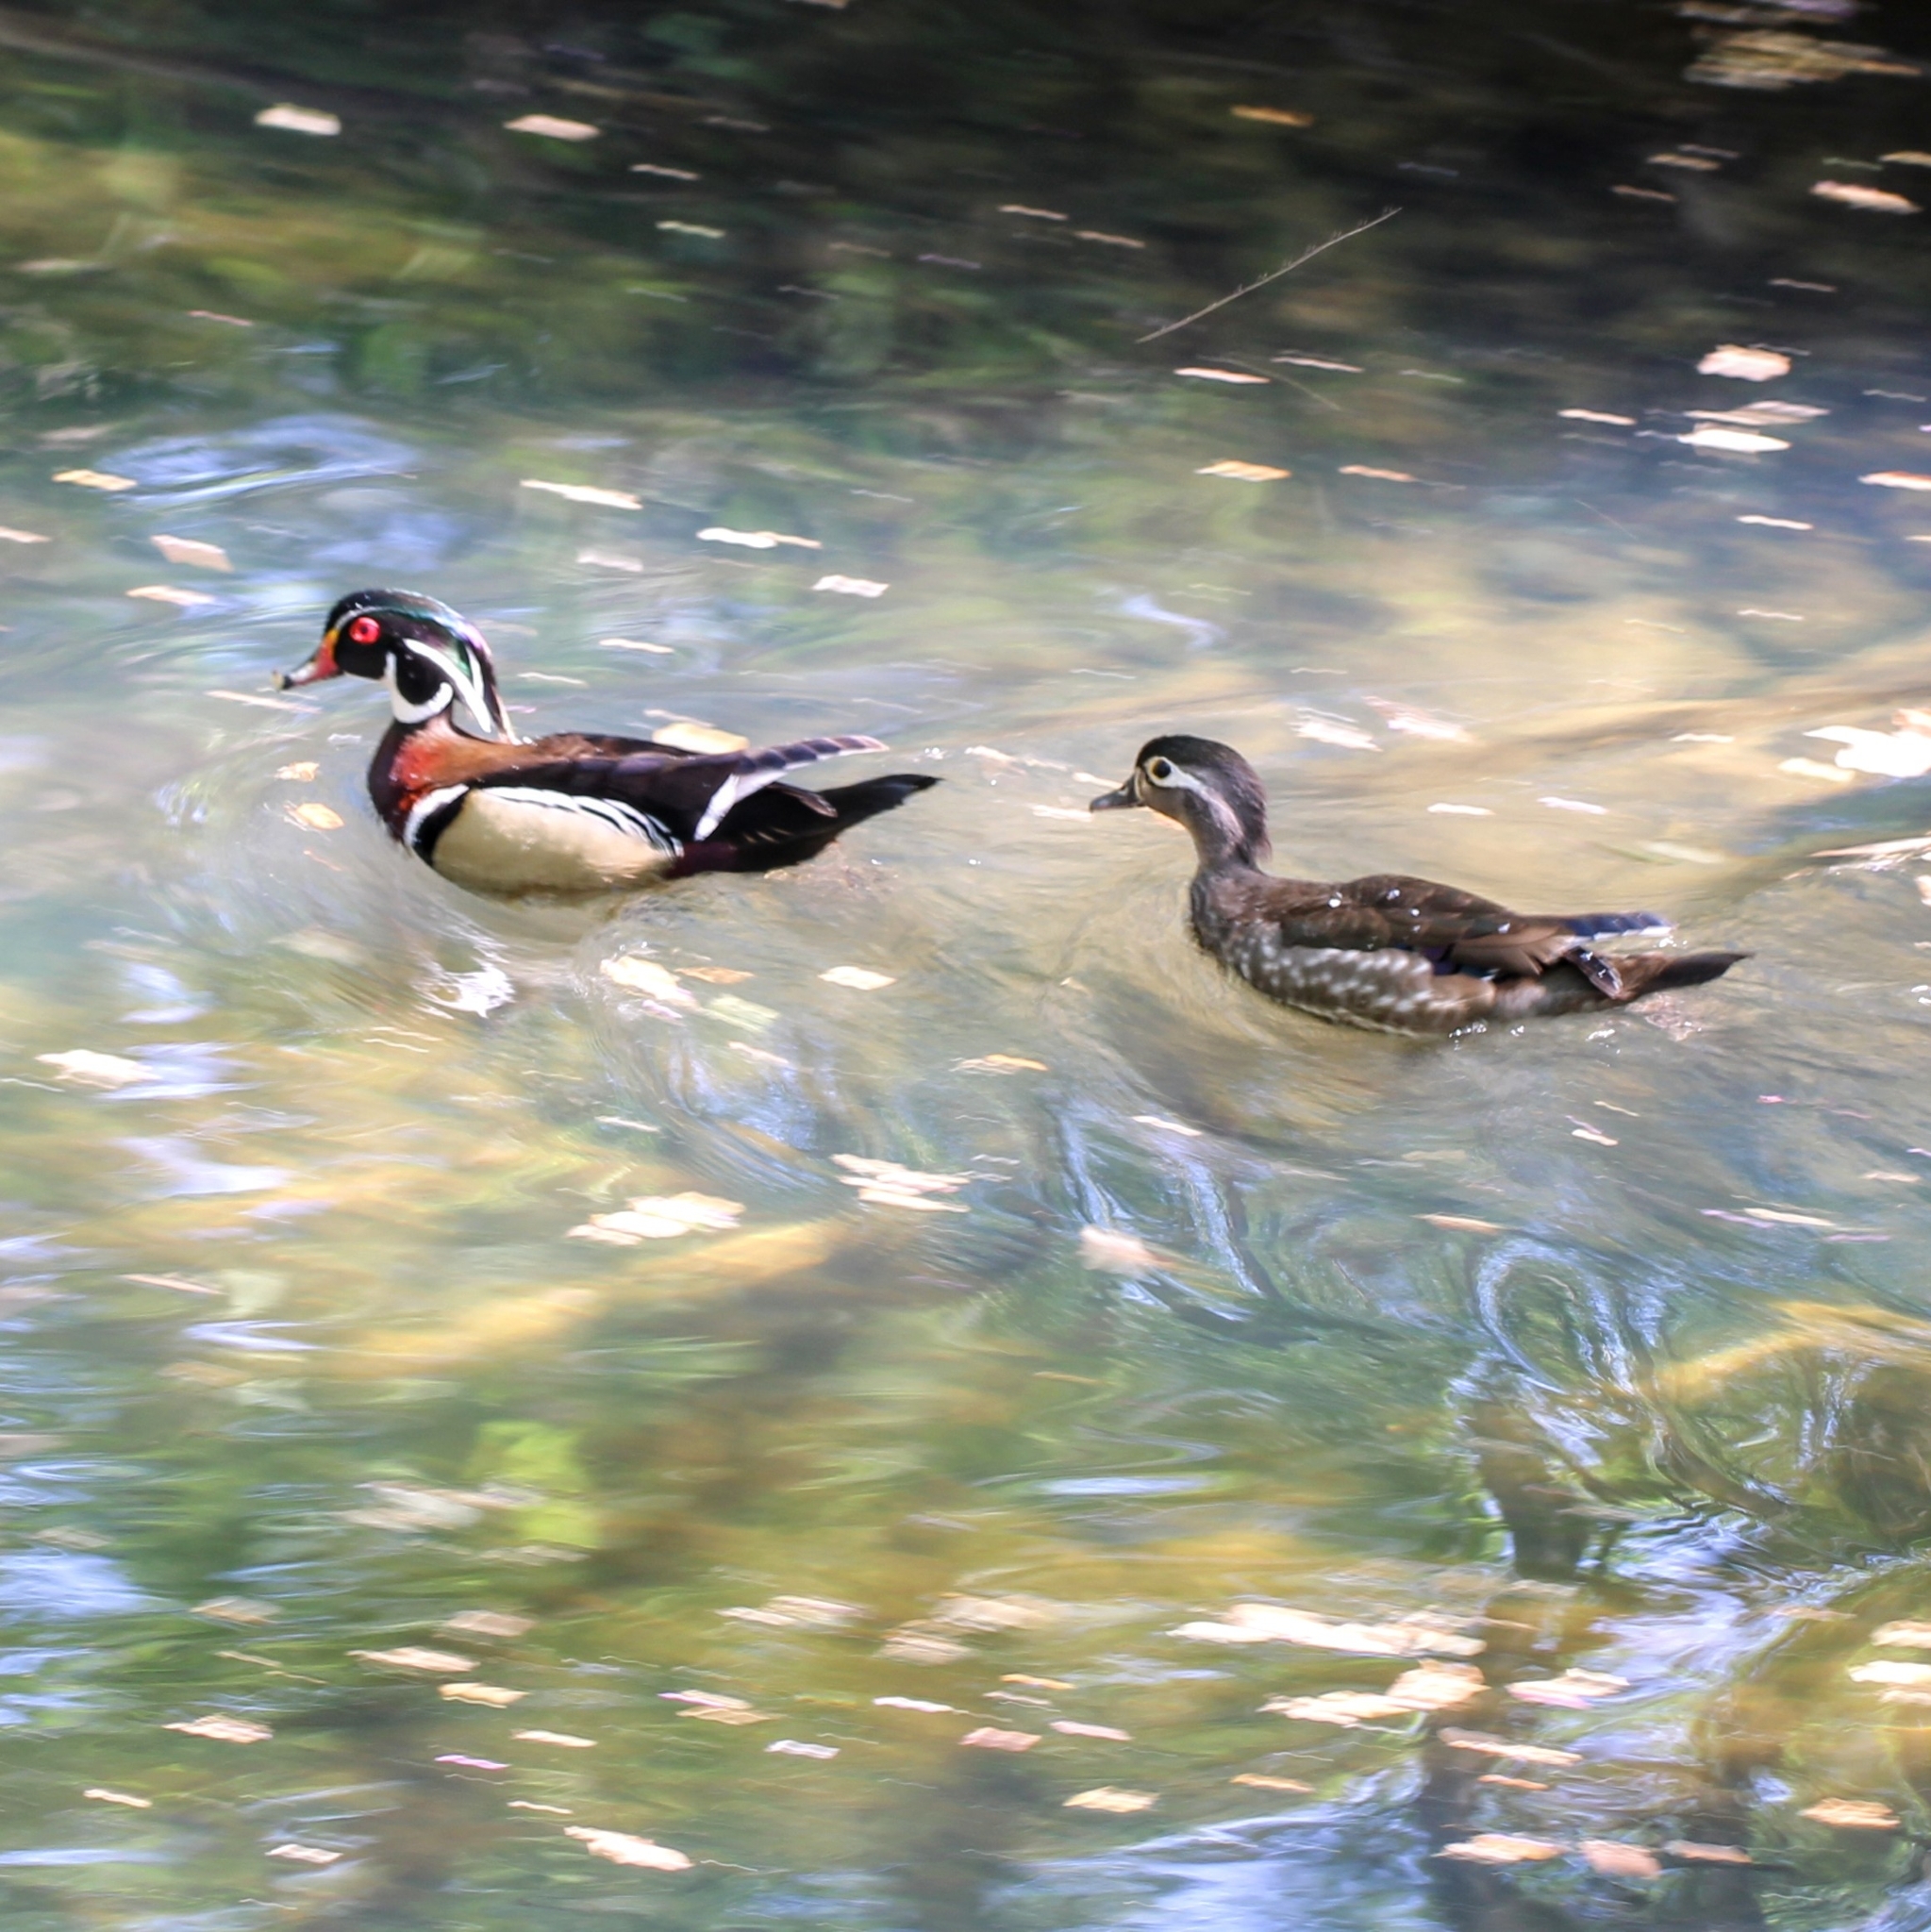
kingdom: Animalia
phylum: Chordata
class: Aves
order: Anseriformes
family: Anatidae
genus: Aix
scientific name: Aix sponsa
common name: Wood duck
